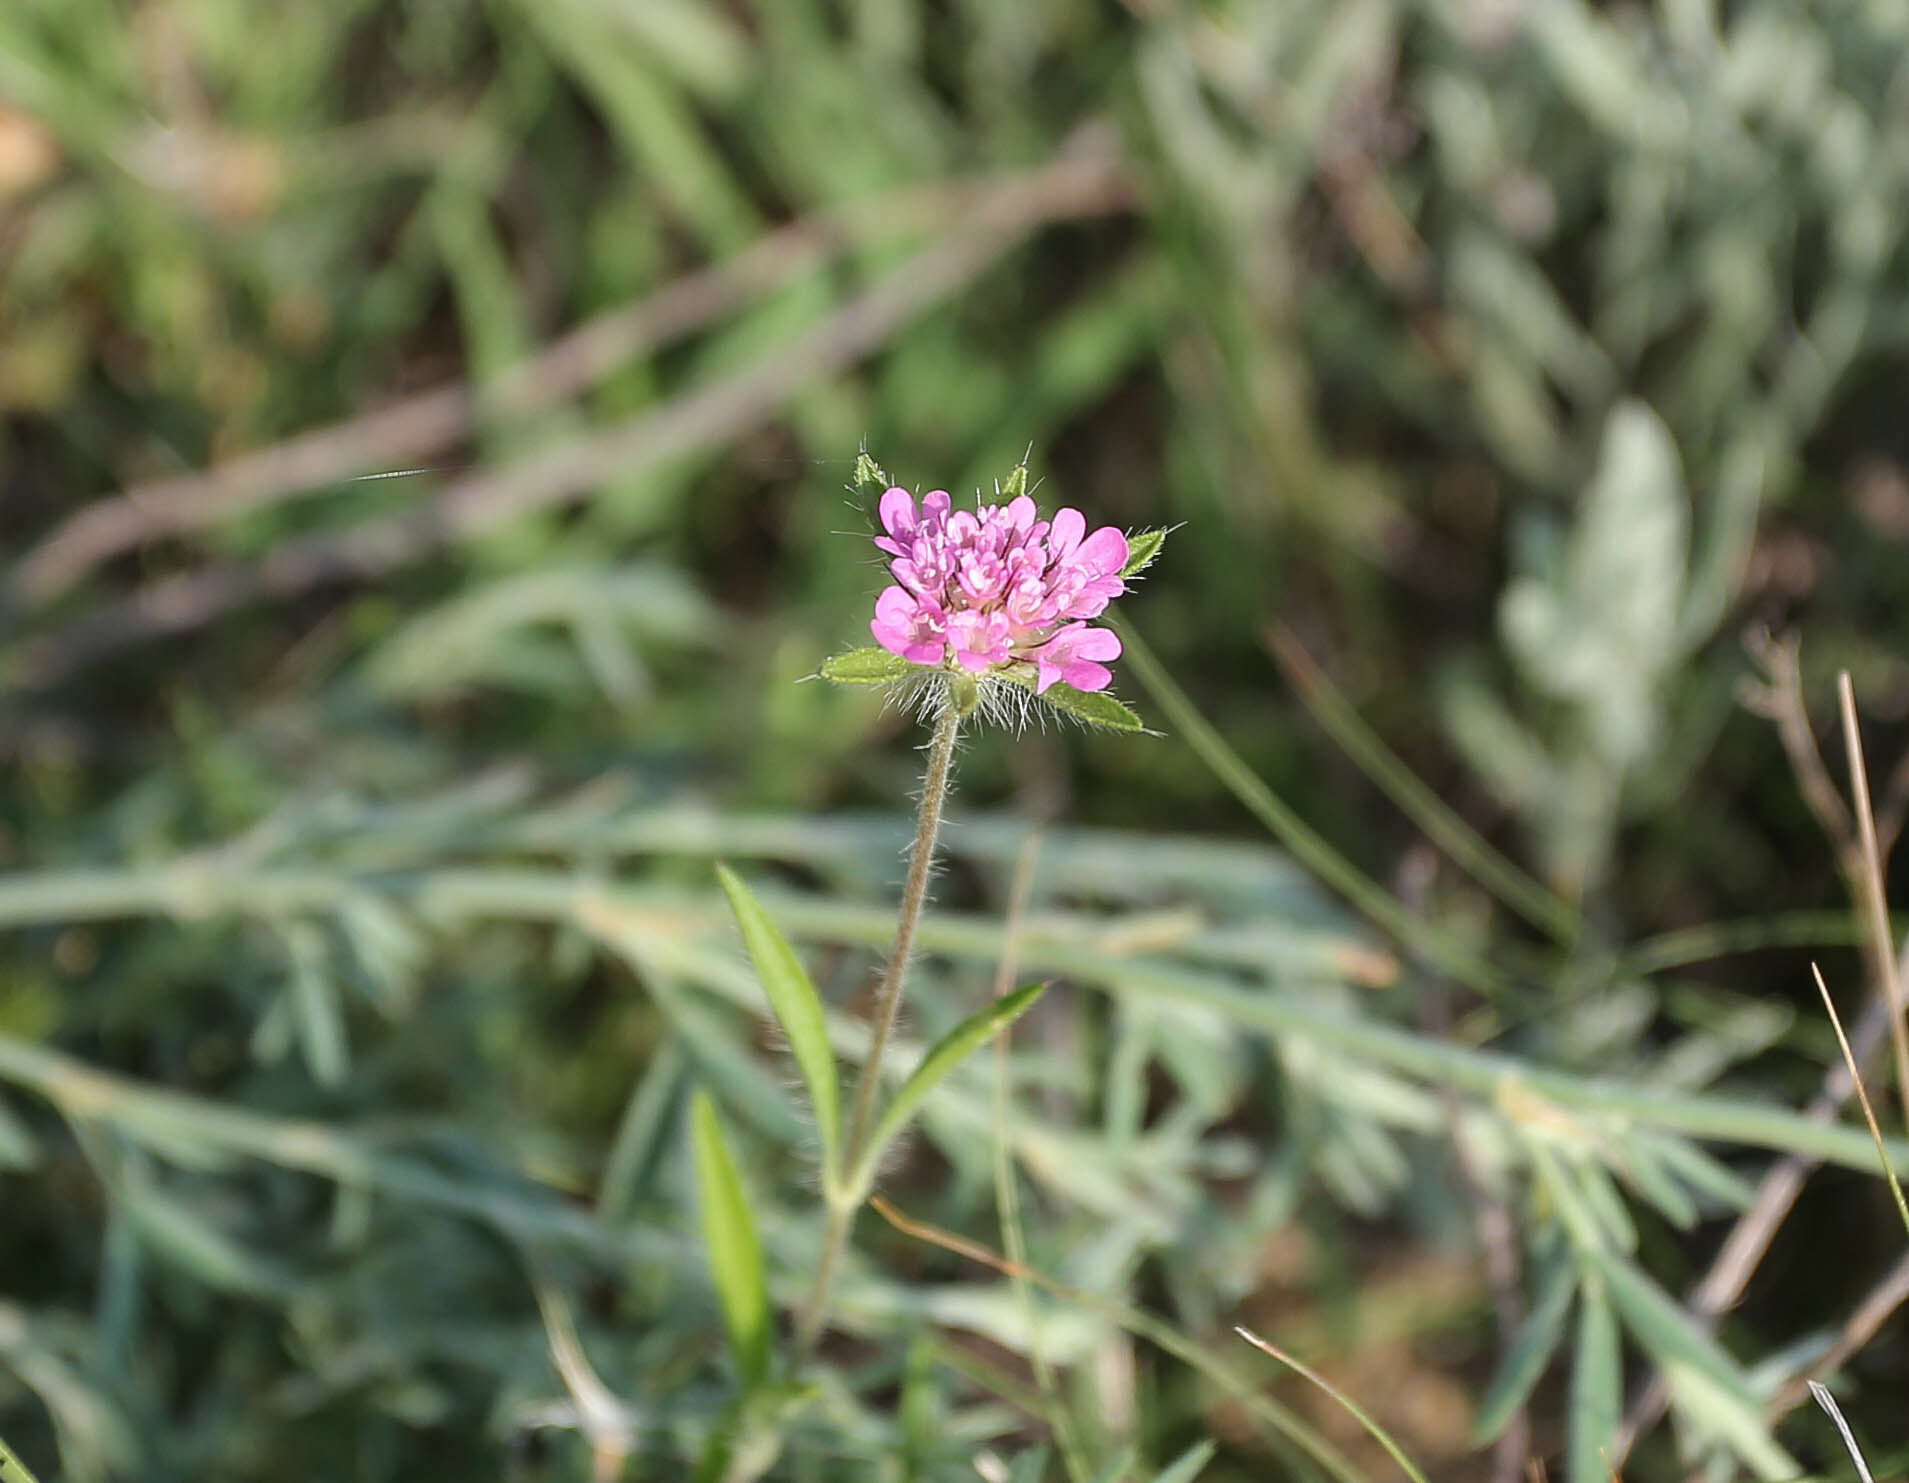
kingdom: Plantae
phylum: Tracheophyta
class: Magnoliopsida
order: Dipsacales
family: Caprifoliaceae
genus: Lomelosia
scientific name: Lomelosia micrantha
